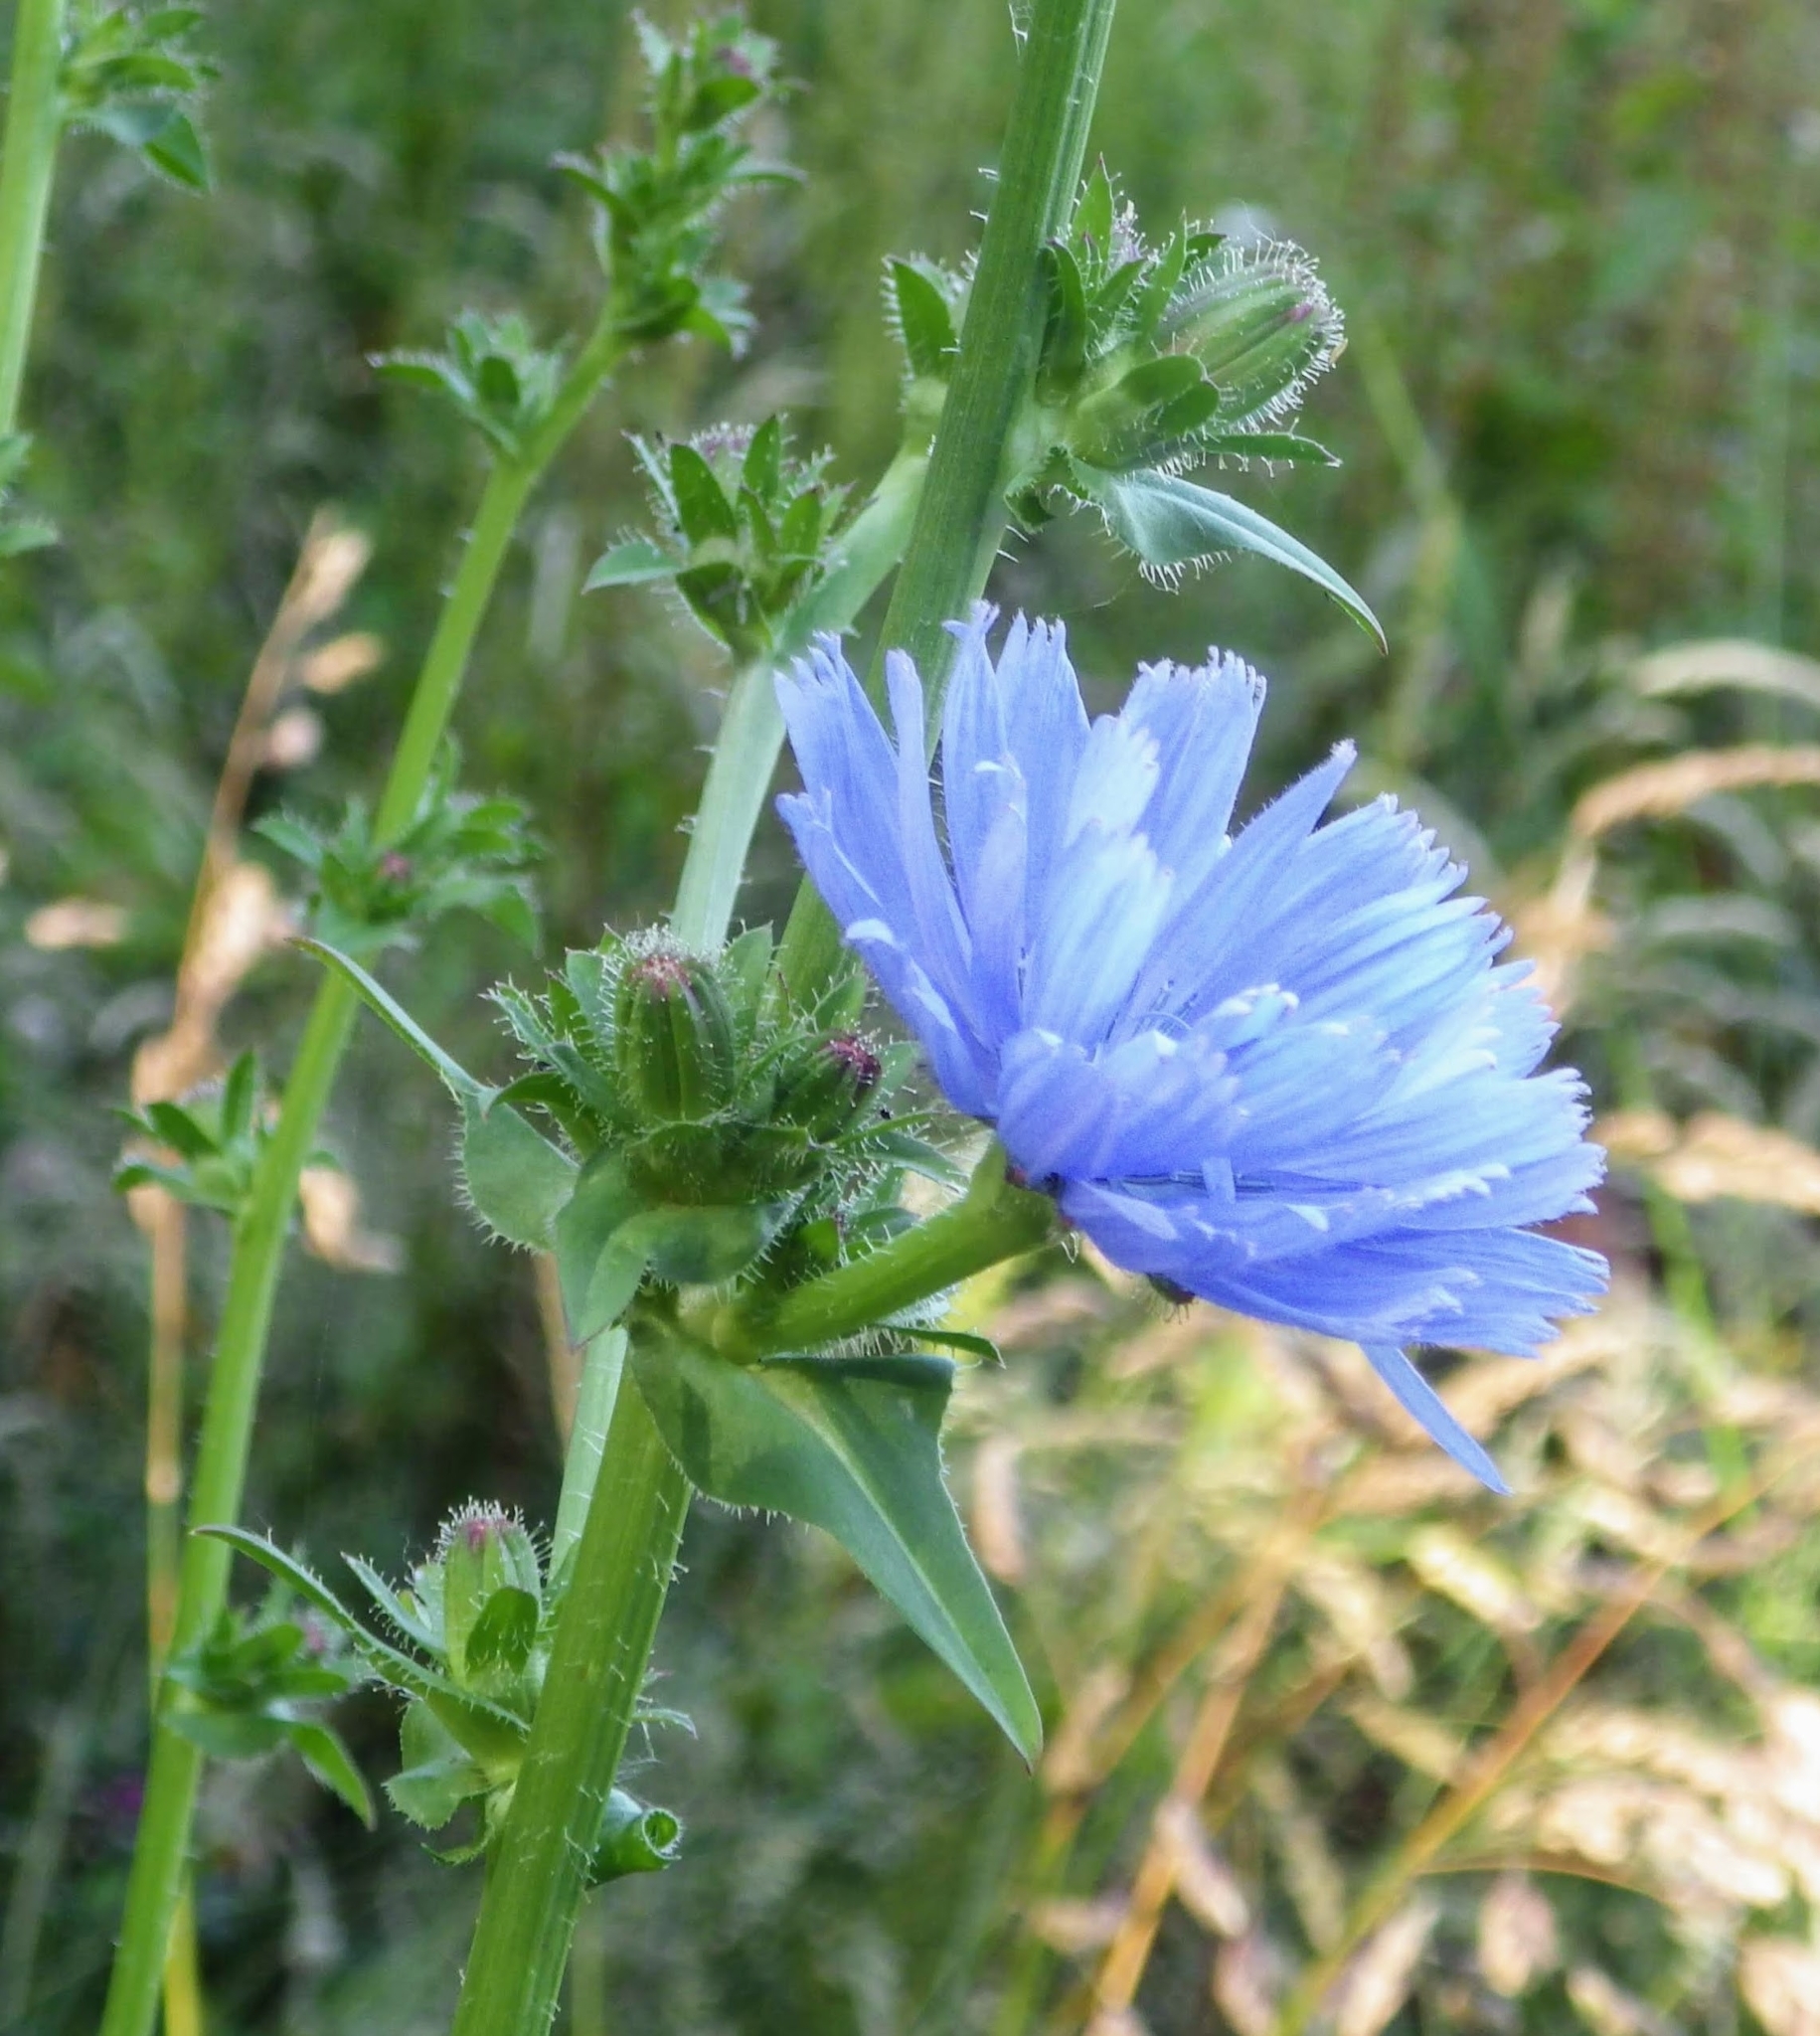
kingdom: Plantae
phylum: Tracheophyta
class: Magnoliopsida
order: Asterales
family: Asteraceae
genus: Cichorium
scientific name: Cichorium intybus
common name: Chicory
